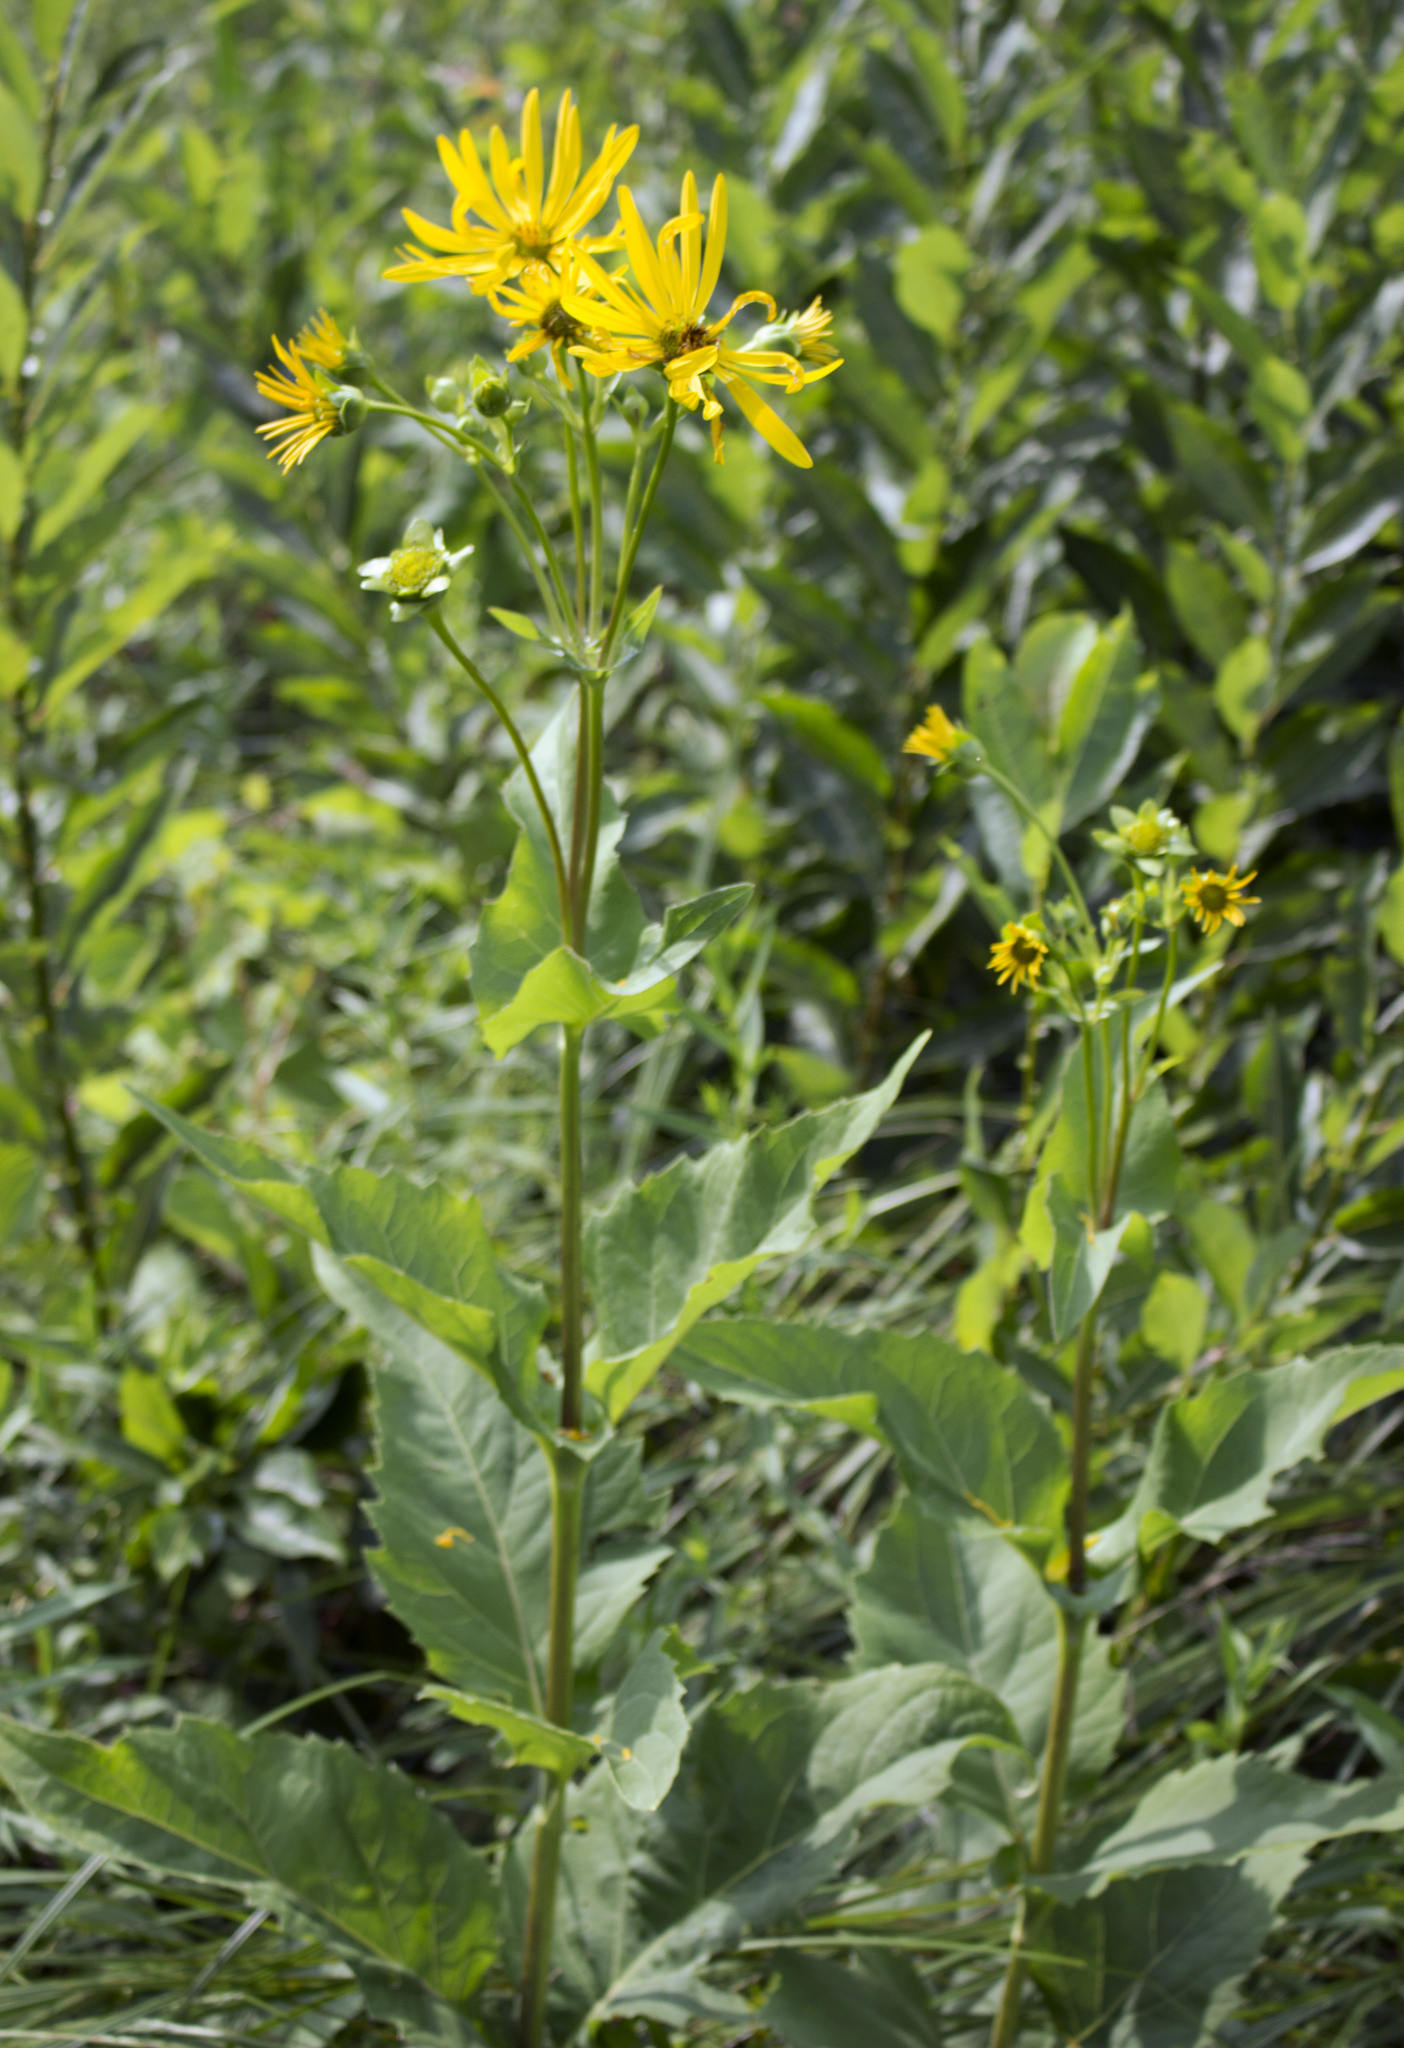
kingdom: Plantae
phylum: Tracheophyta
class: Magnoliopsida
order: Asterales
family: Asteraceae
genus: Silphium
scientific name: Silphium perfoliatum
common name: Cup-plant
